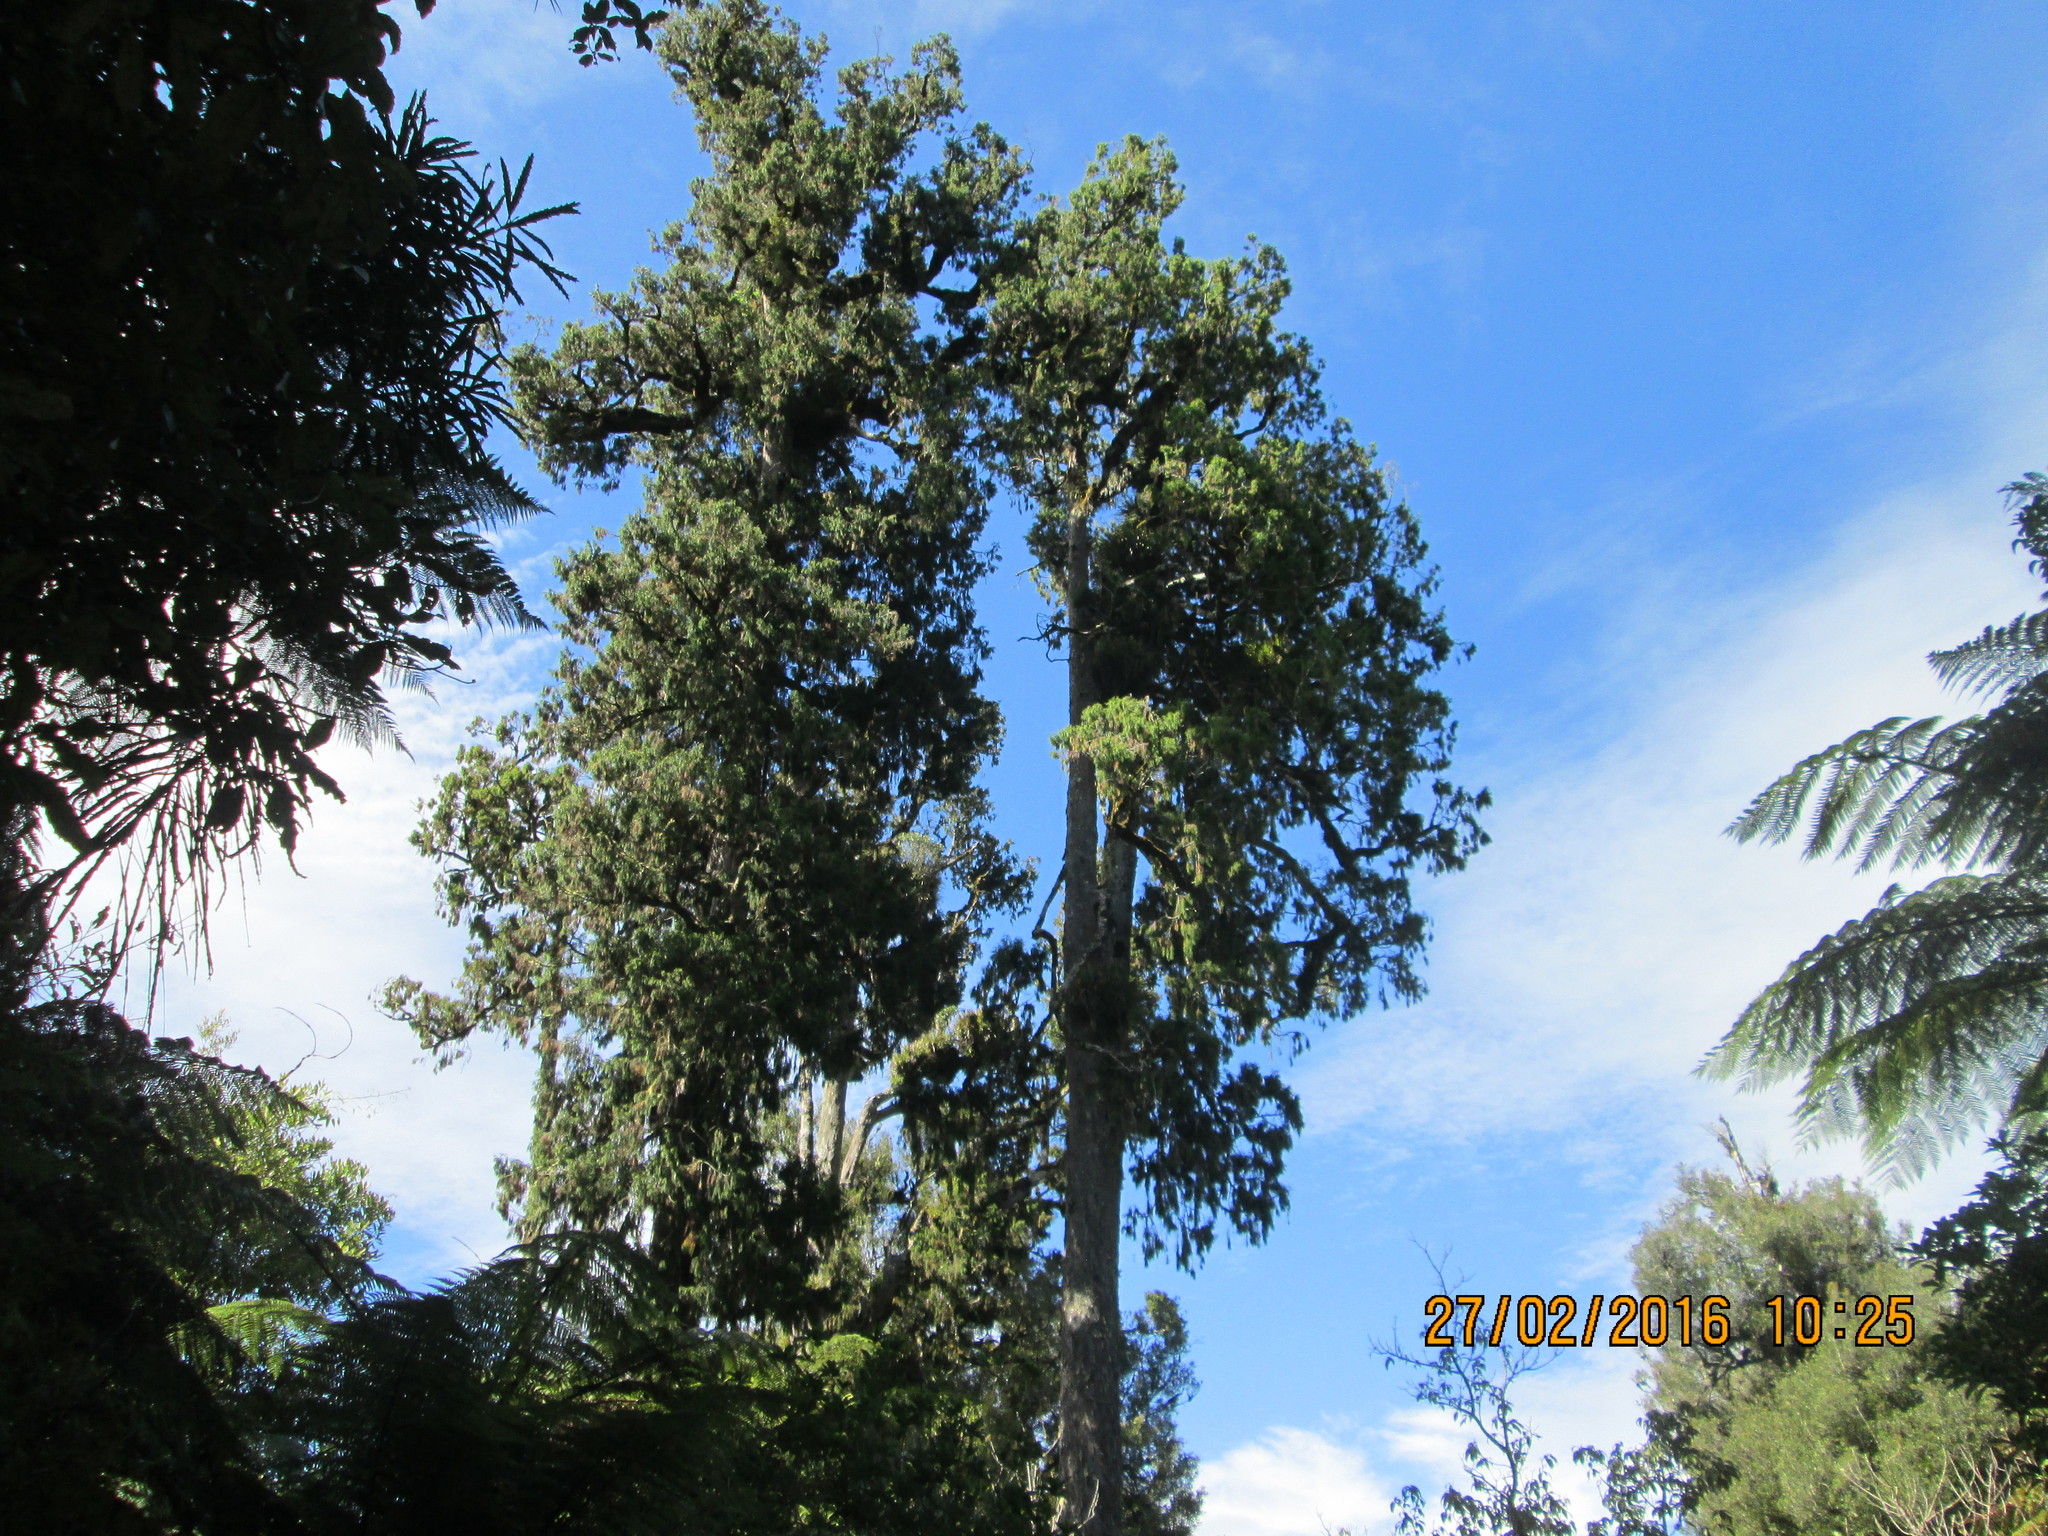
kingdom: Plantae
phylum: Tracheophyta
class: Pinopsida
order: Pinales
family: Podocarpaceae
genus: Dacrydium
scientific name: Dacrydium cupressinum
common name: Red pine
